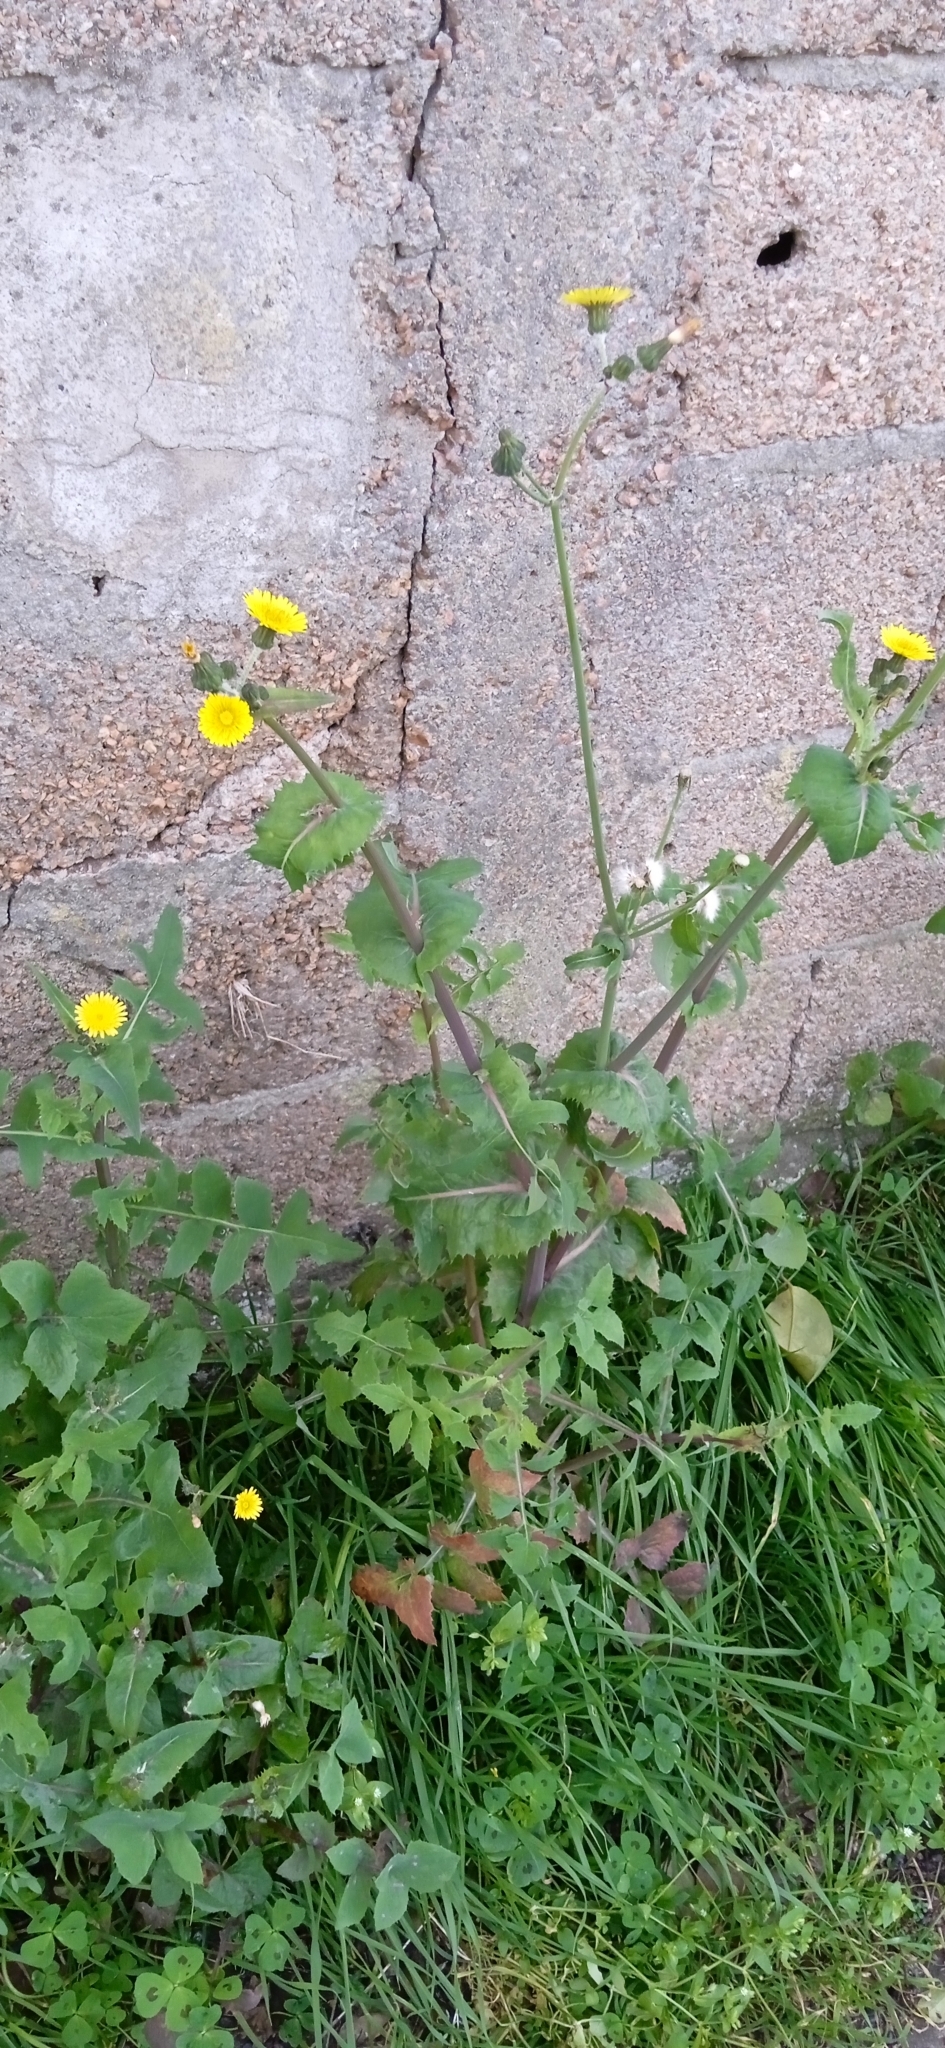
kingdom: Plantae
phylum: Tracheophyta
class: Magnoliopsida
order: Asterales
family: Asteraceae
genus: Sonchus
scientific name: Sonchus oleraceus
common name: Common sowthistle
